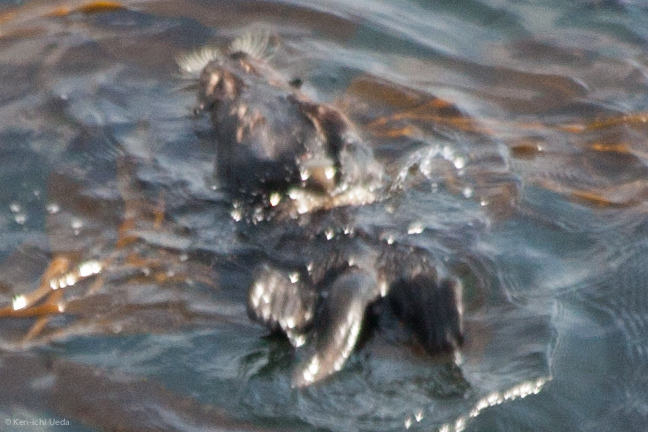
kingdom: Animalia
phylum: Chordata
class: Mammalia
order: Carnivora
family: Mustelidae
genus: Enhydra
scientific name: Enhydra lutris
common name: Sea otter
